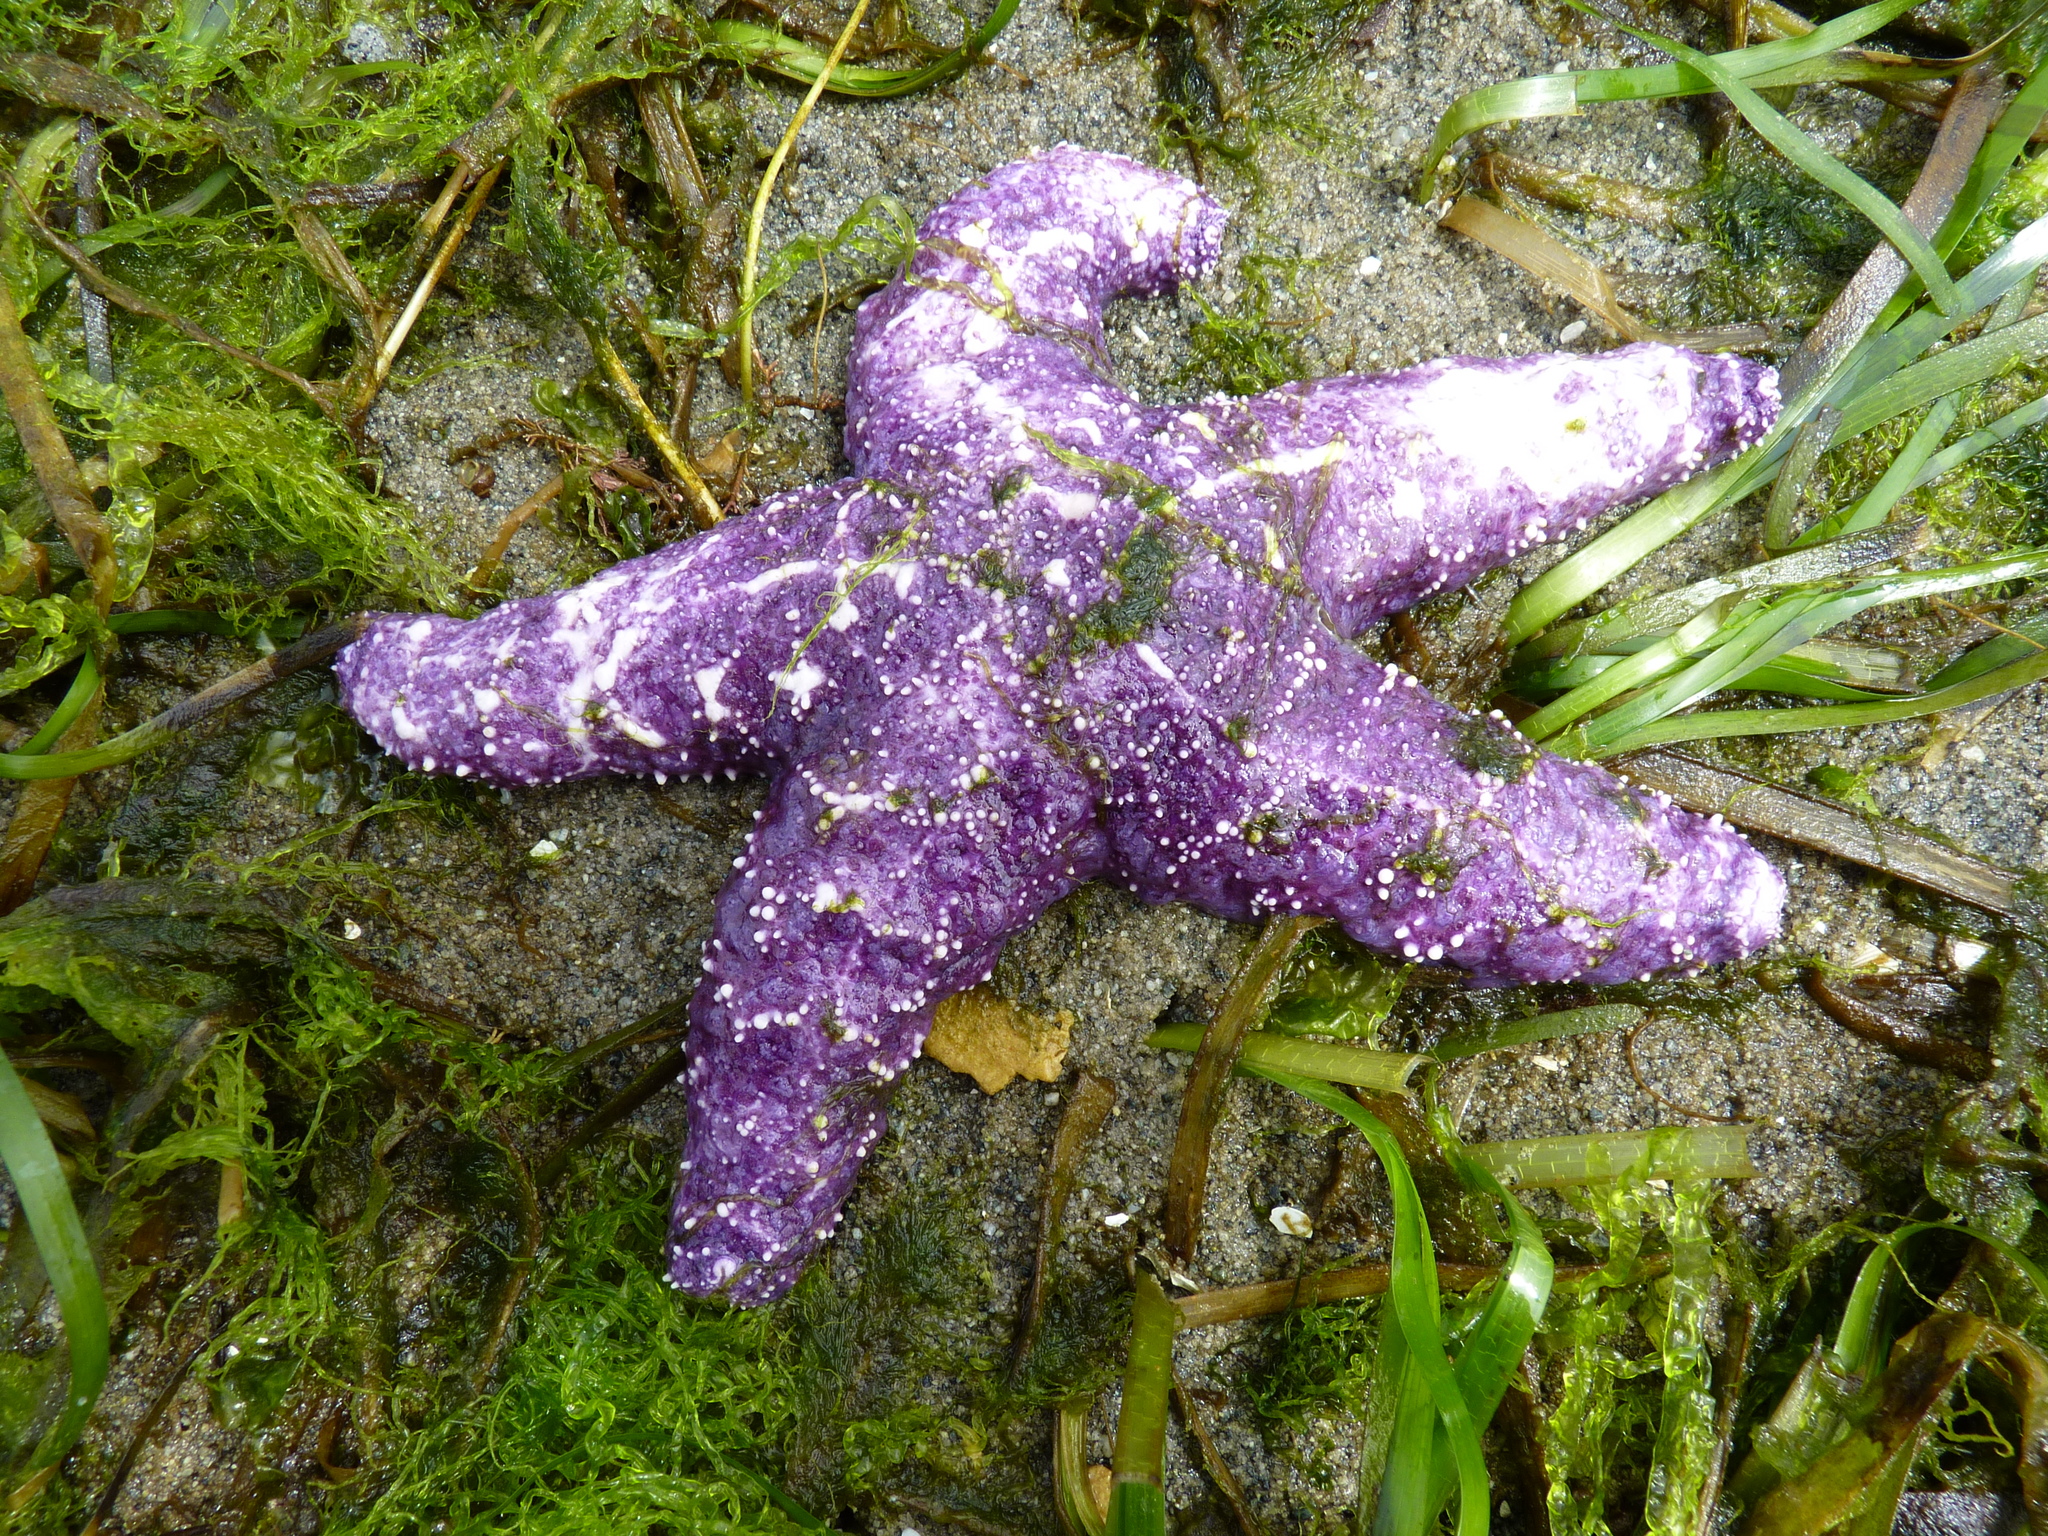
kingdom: Animalia
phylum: Echinodermata
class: Asteroidea
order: Forcipulatida
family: Asteriidae
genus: Pisaster
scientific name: Pisaster ochraceus
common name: Ochre stars
